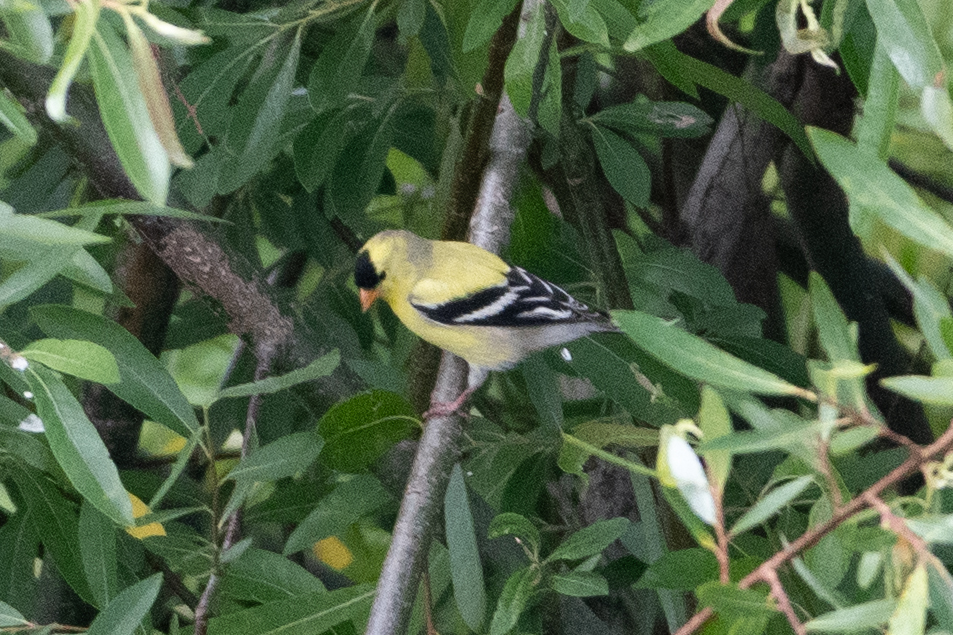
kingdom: Animalia
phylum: Chordata
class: Aves
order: Passeriformes
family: Fringillidae
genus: Spinus
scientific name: Spinus tristis
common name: American goldfinch
